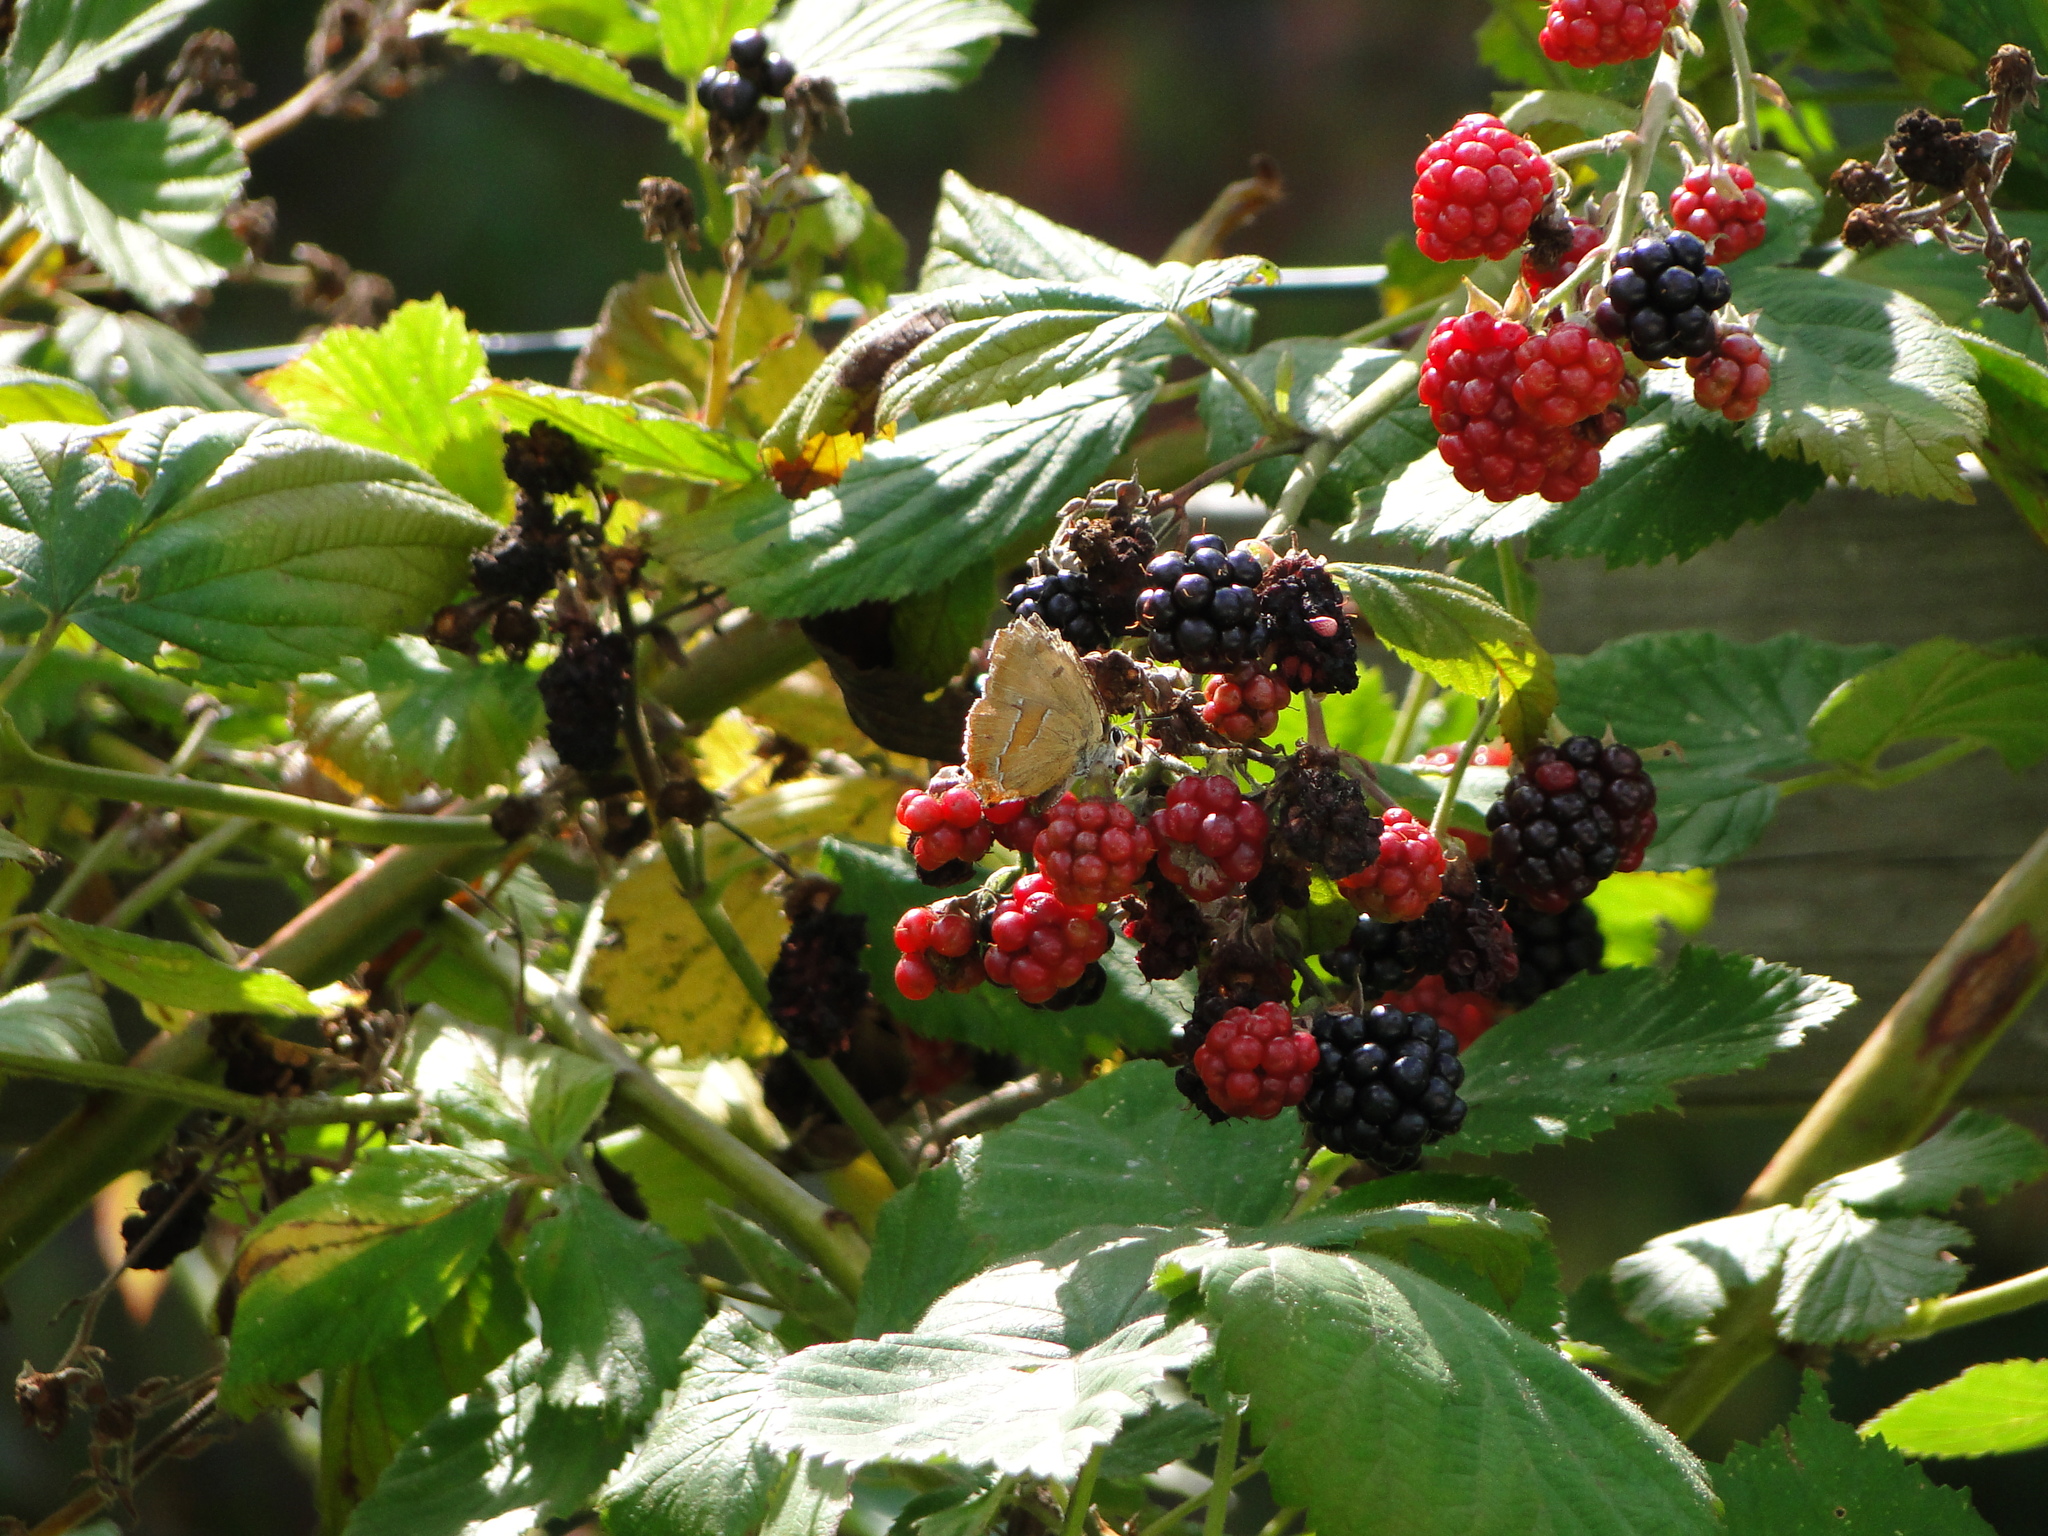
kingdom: Animalia
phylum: Arthropoda
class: Insecta
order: Lepidoptera
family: Lycaenidae
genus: Thecla
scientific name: Thecla betulae
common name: Brown hairstreak
